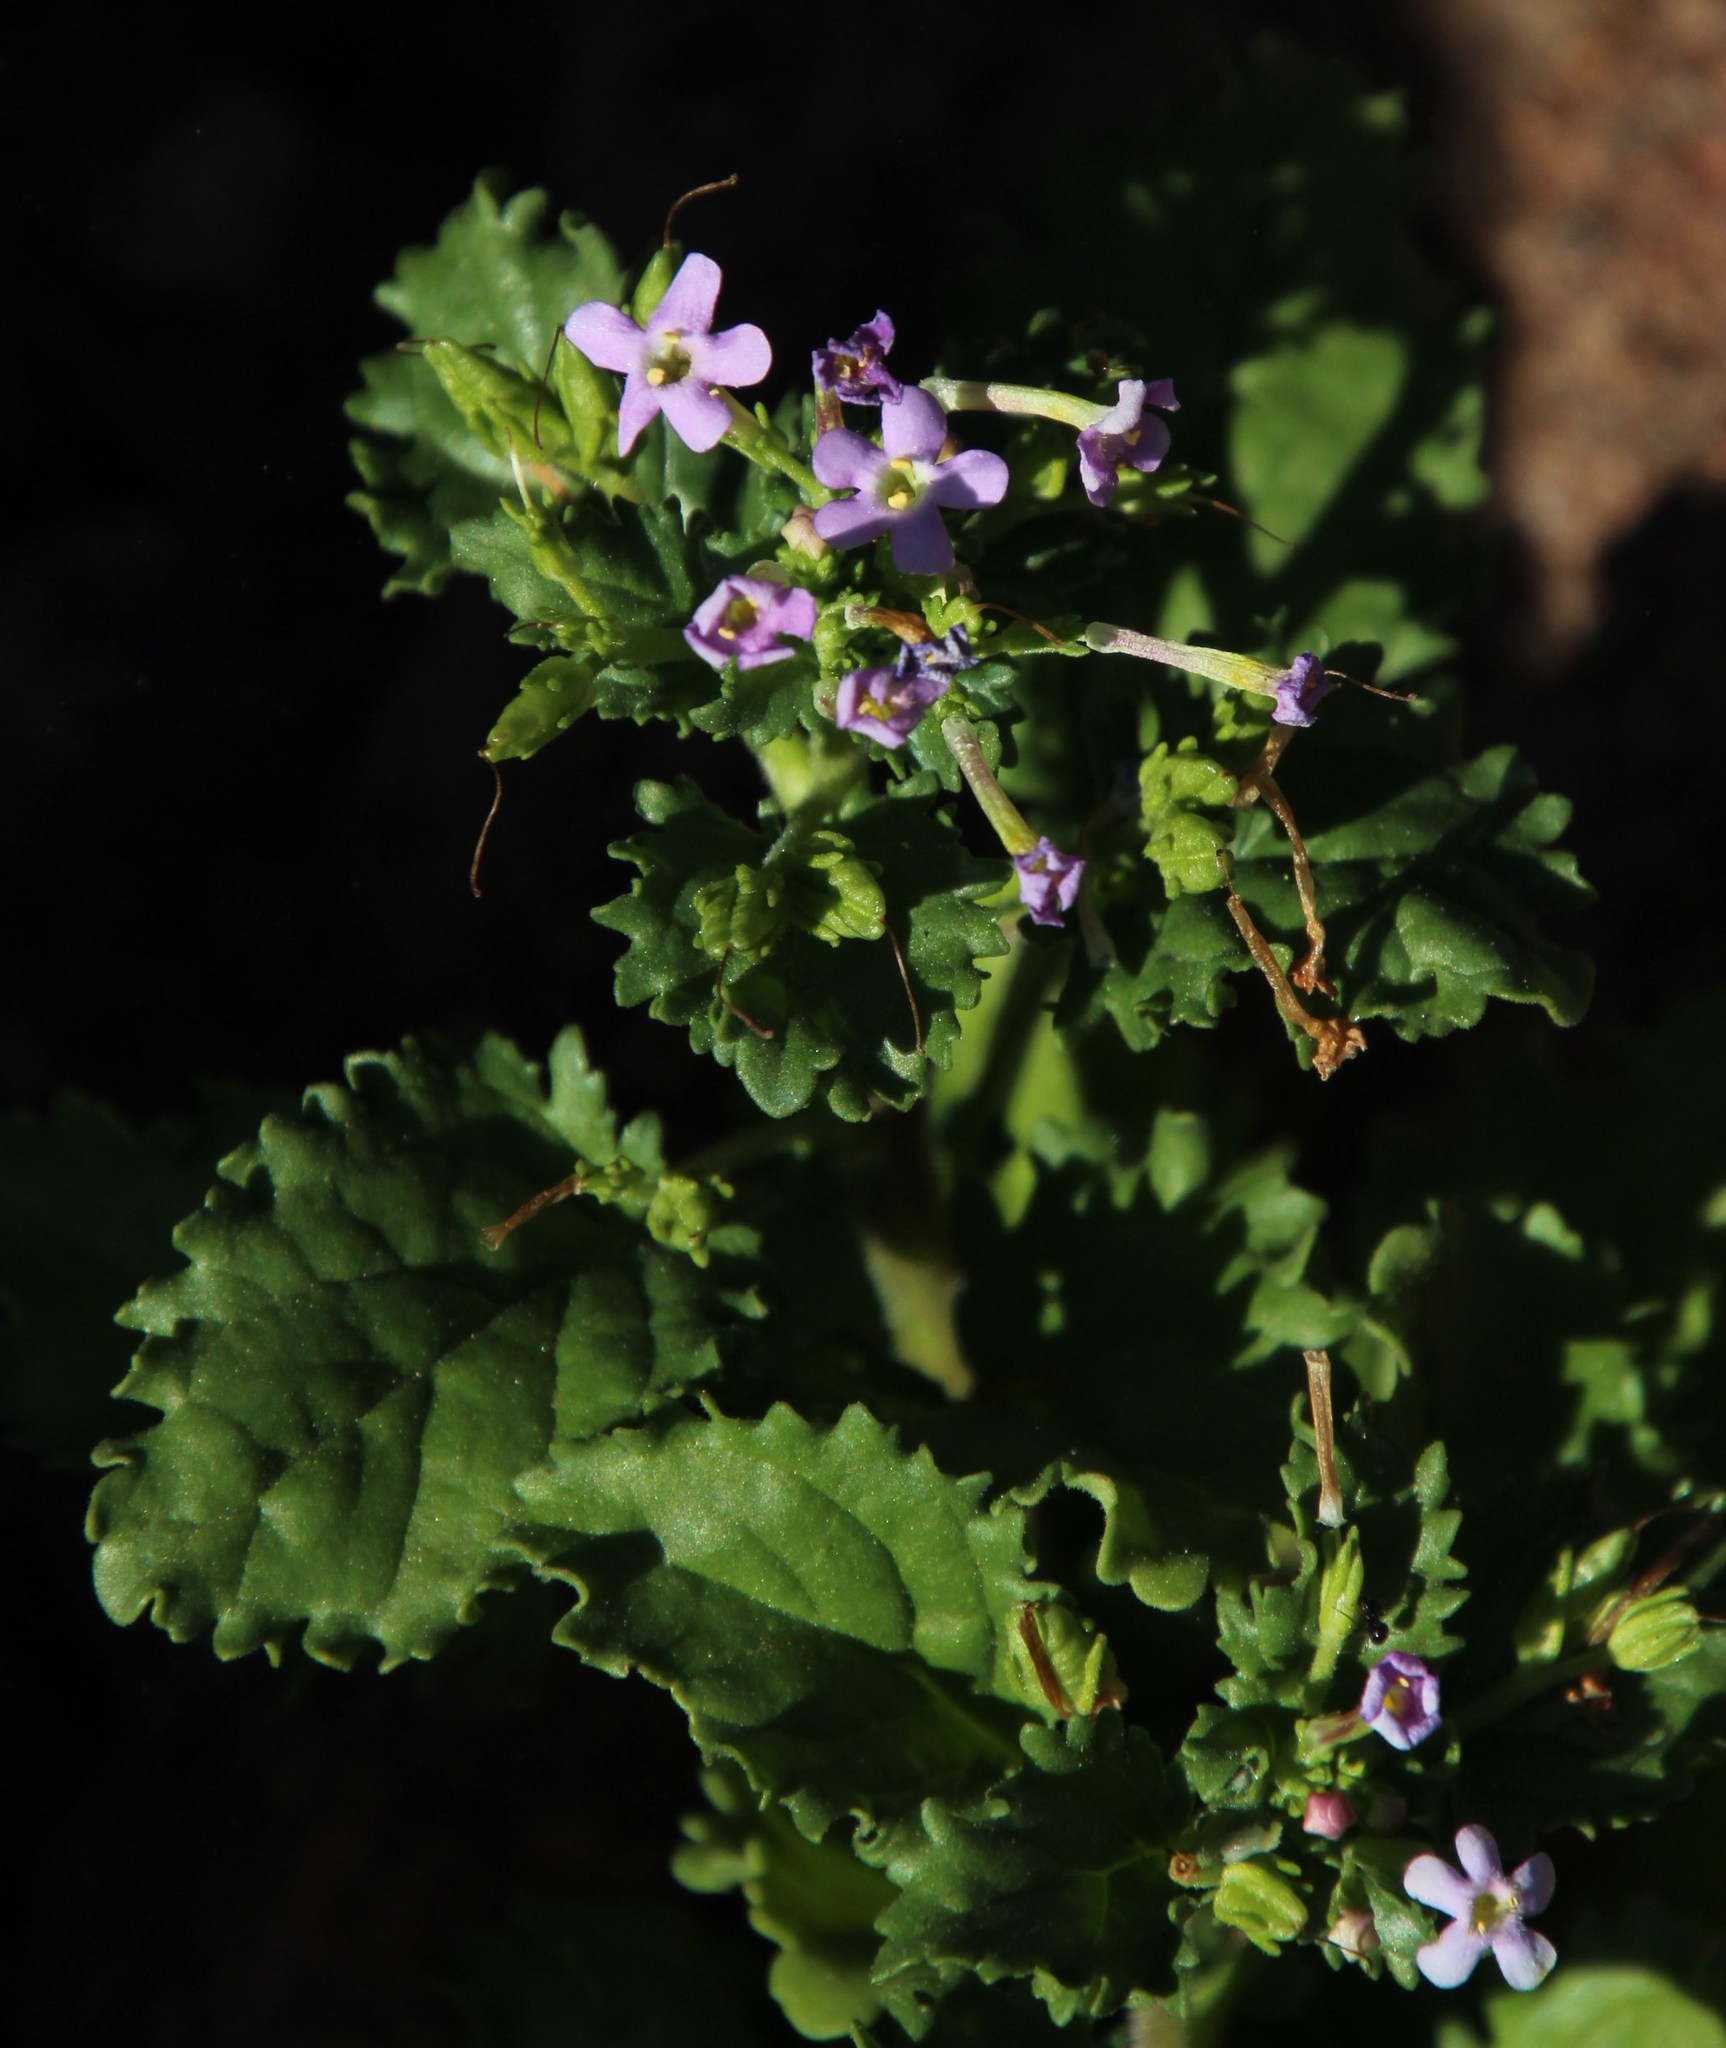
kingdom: Plantae
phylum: Tracheophyta
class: Magnoliopsida
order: Lamiales
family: Scrophulariaceae
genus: Sutera
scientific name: Sutera foetida
